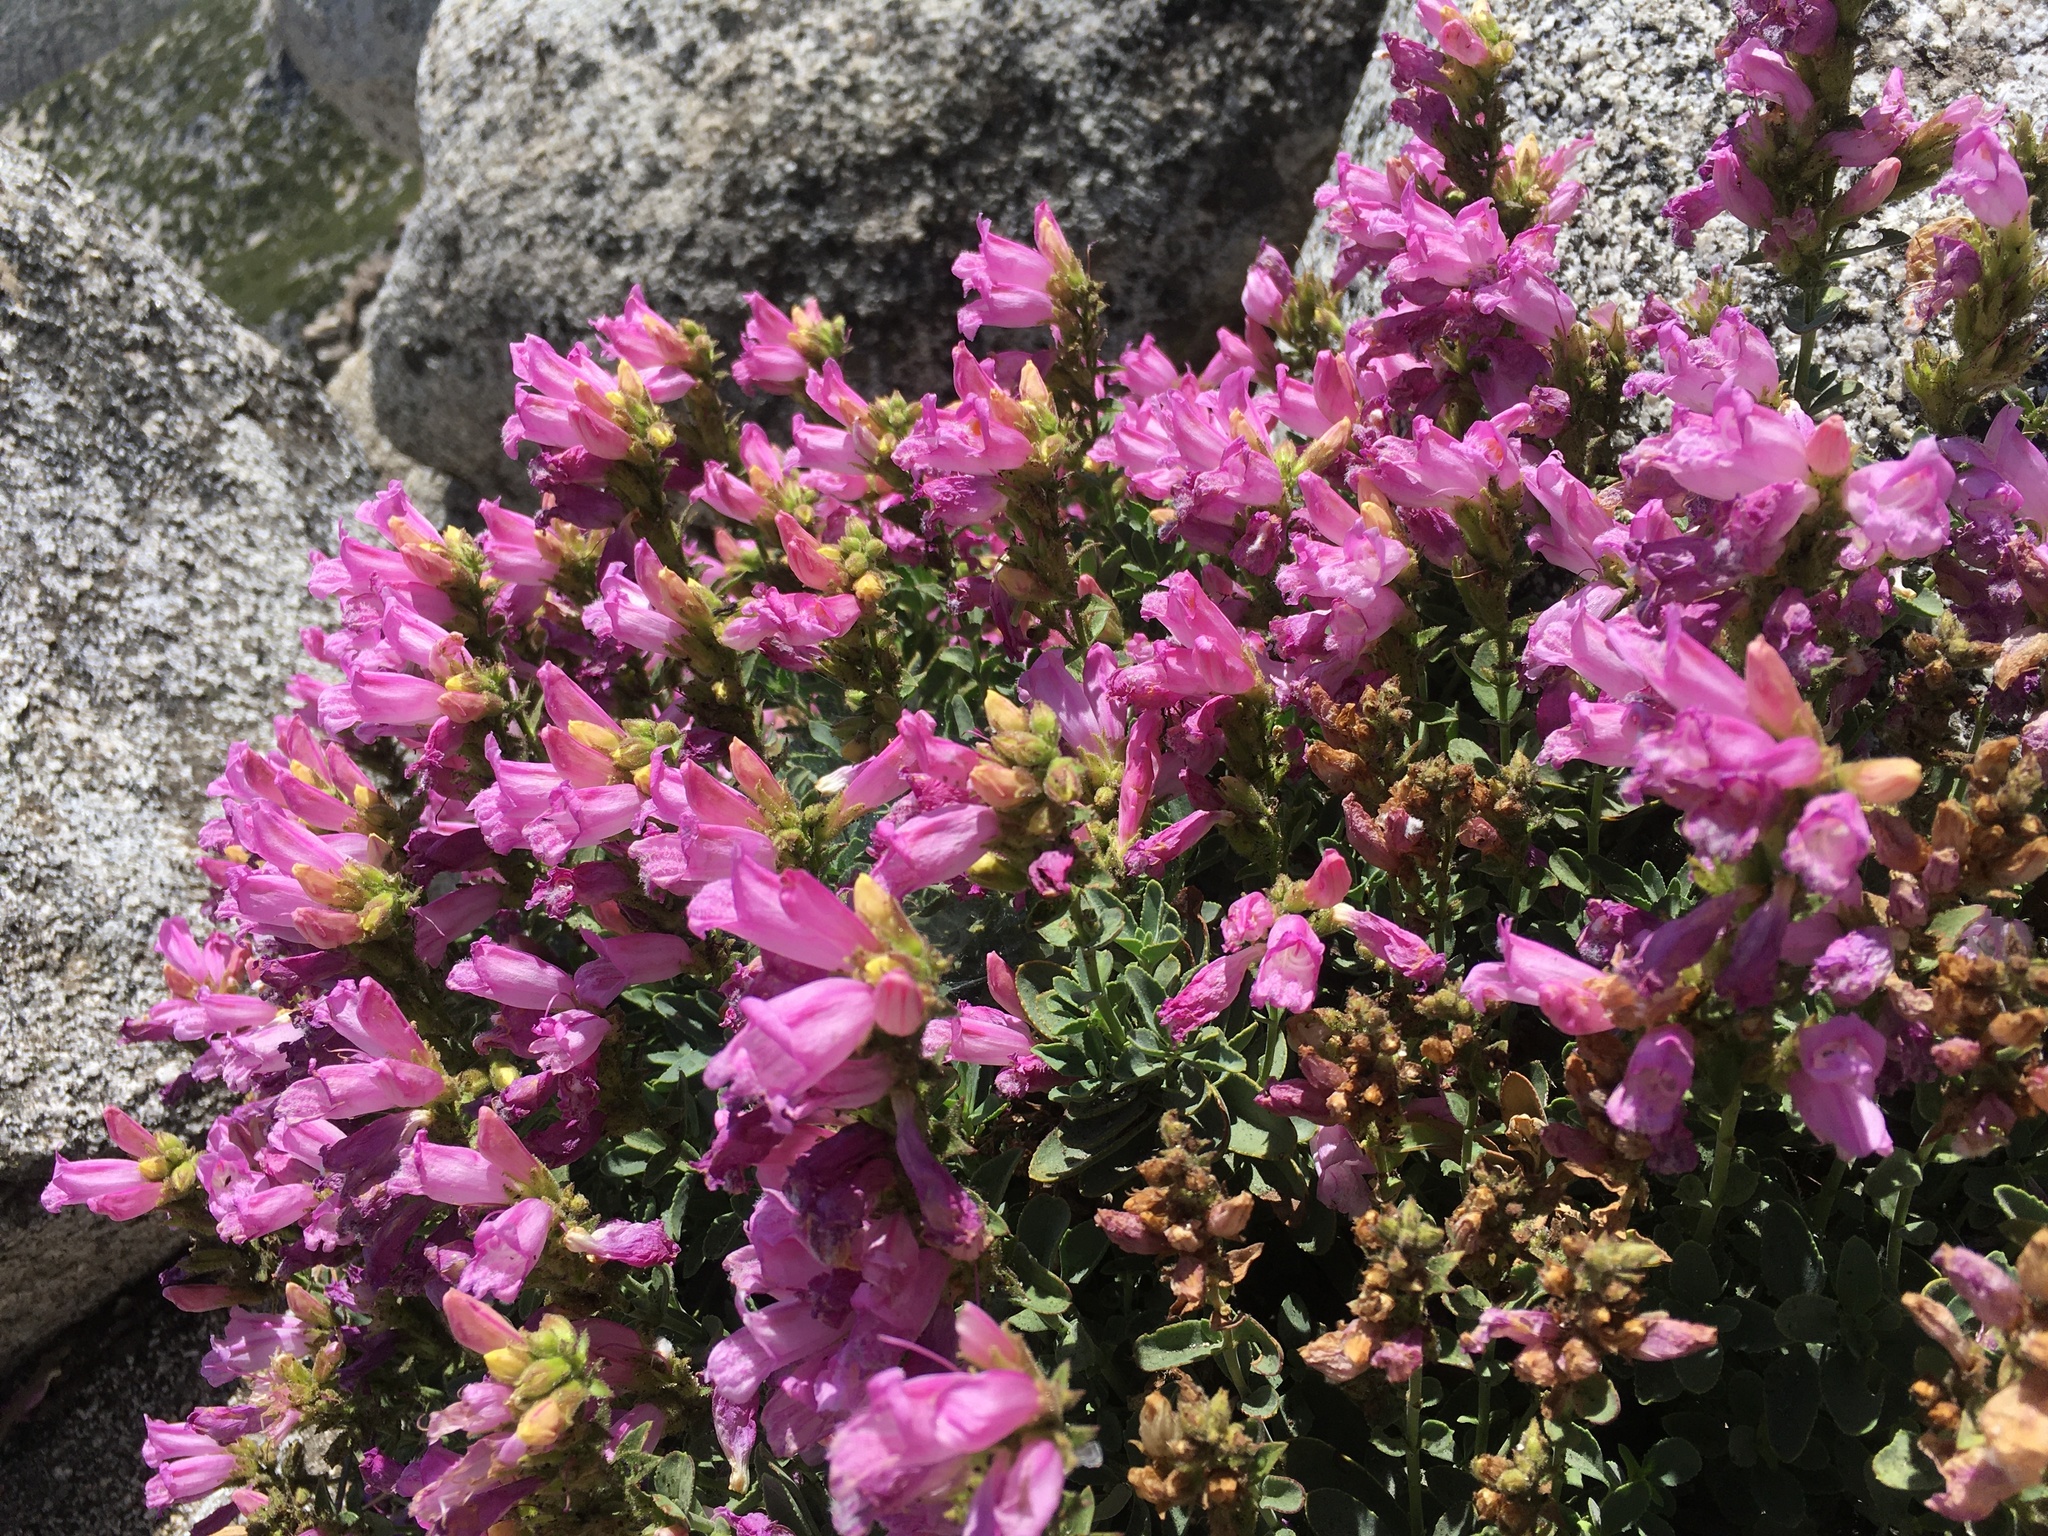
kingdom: Plantae
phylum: Tracheophyta
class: Magnoliopsida
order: Lamiales
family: Plantaginaceae
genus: Penstemon
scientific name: Penstemon newberryi
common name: Mountain-pride
